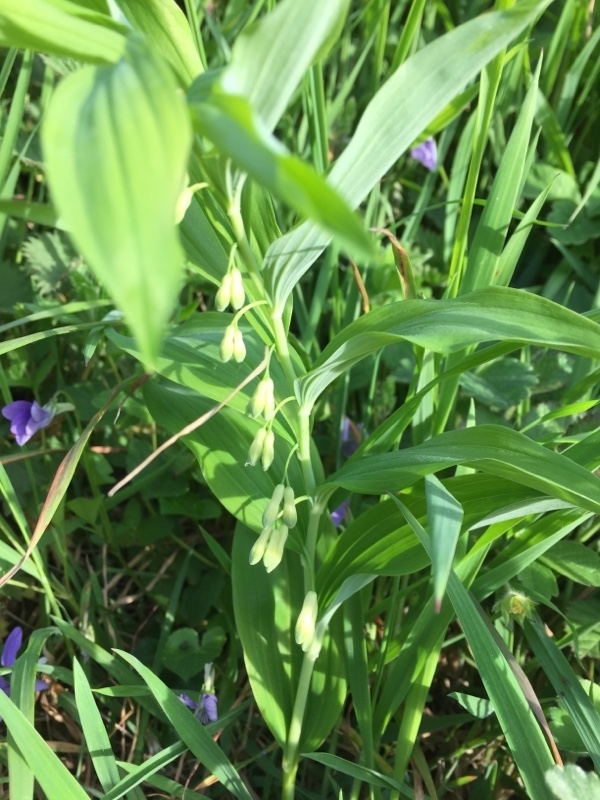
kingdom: Plantae
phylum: Tracheophyta
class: Liliopsida
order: Asparagales
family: Asparagaceae
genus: Polygonatum
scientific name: Polygonatum multiflorum
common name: Solomon's-seal
